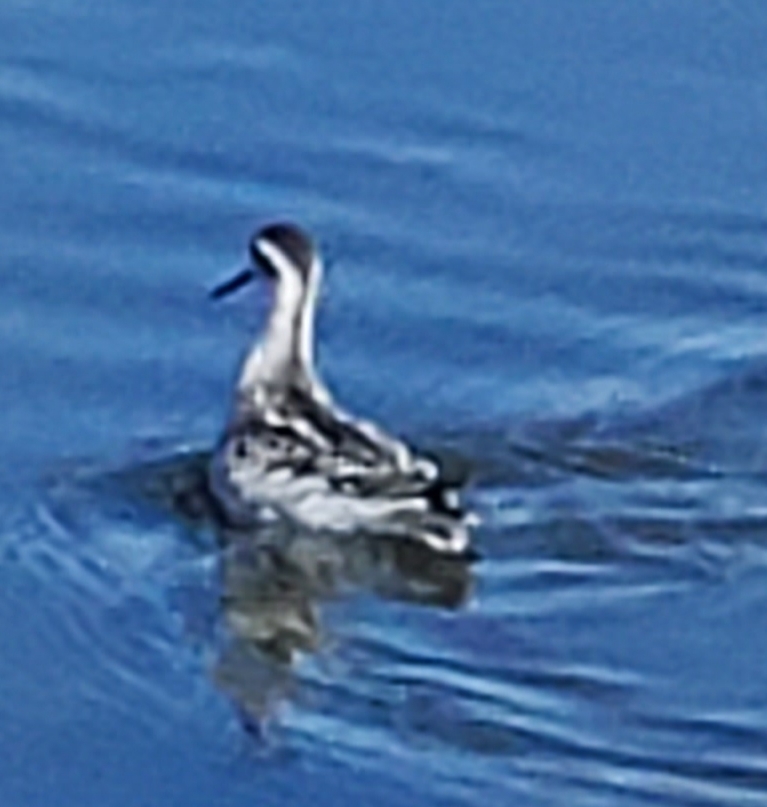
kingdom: Animalia
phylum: Chordata
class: Aves
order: Charadriiformes
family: Scolopacidae
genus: Phalaropus
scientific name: Phalaropus lobatus
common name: Red-necked phalarope
